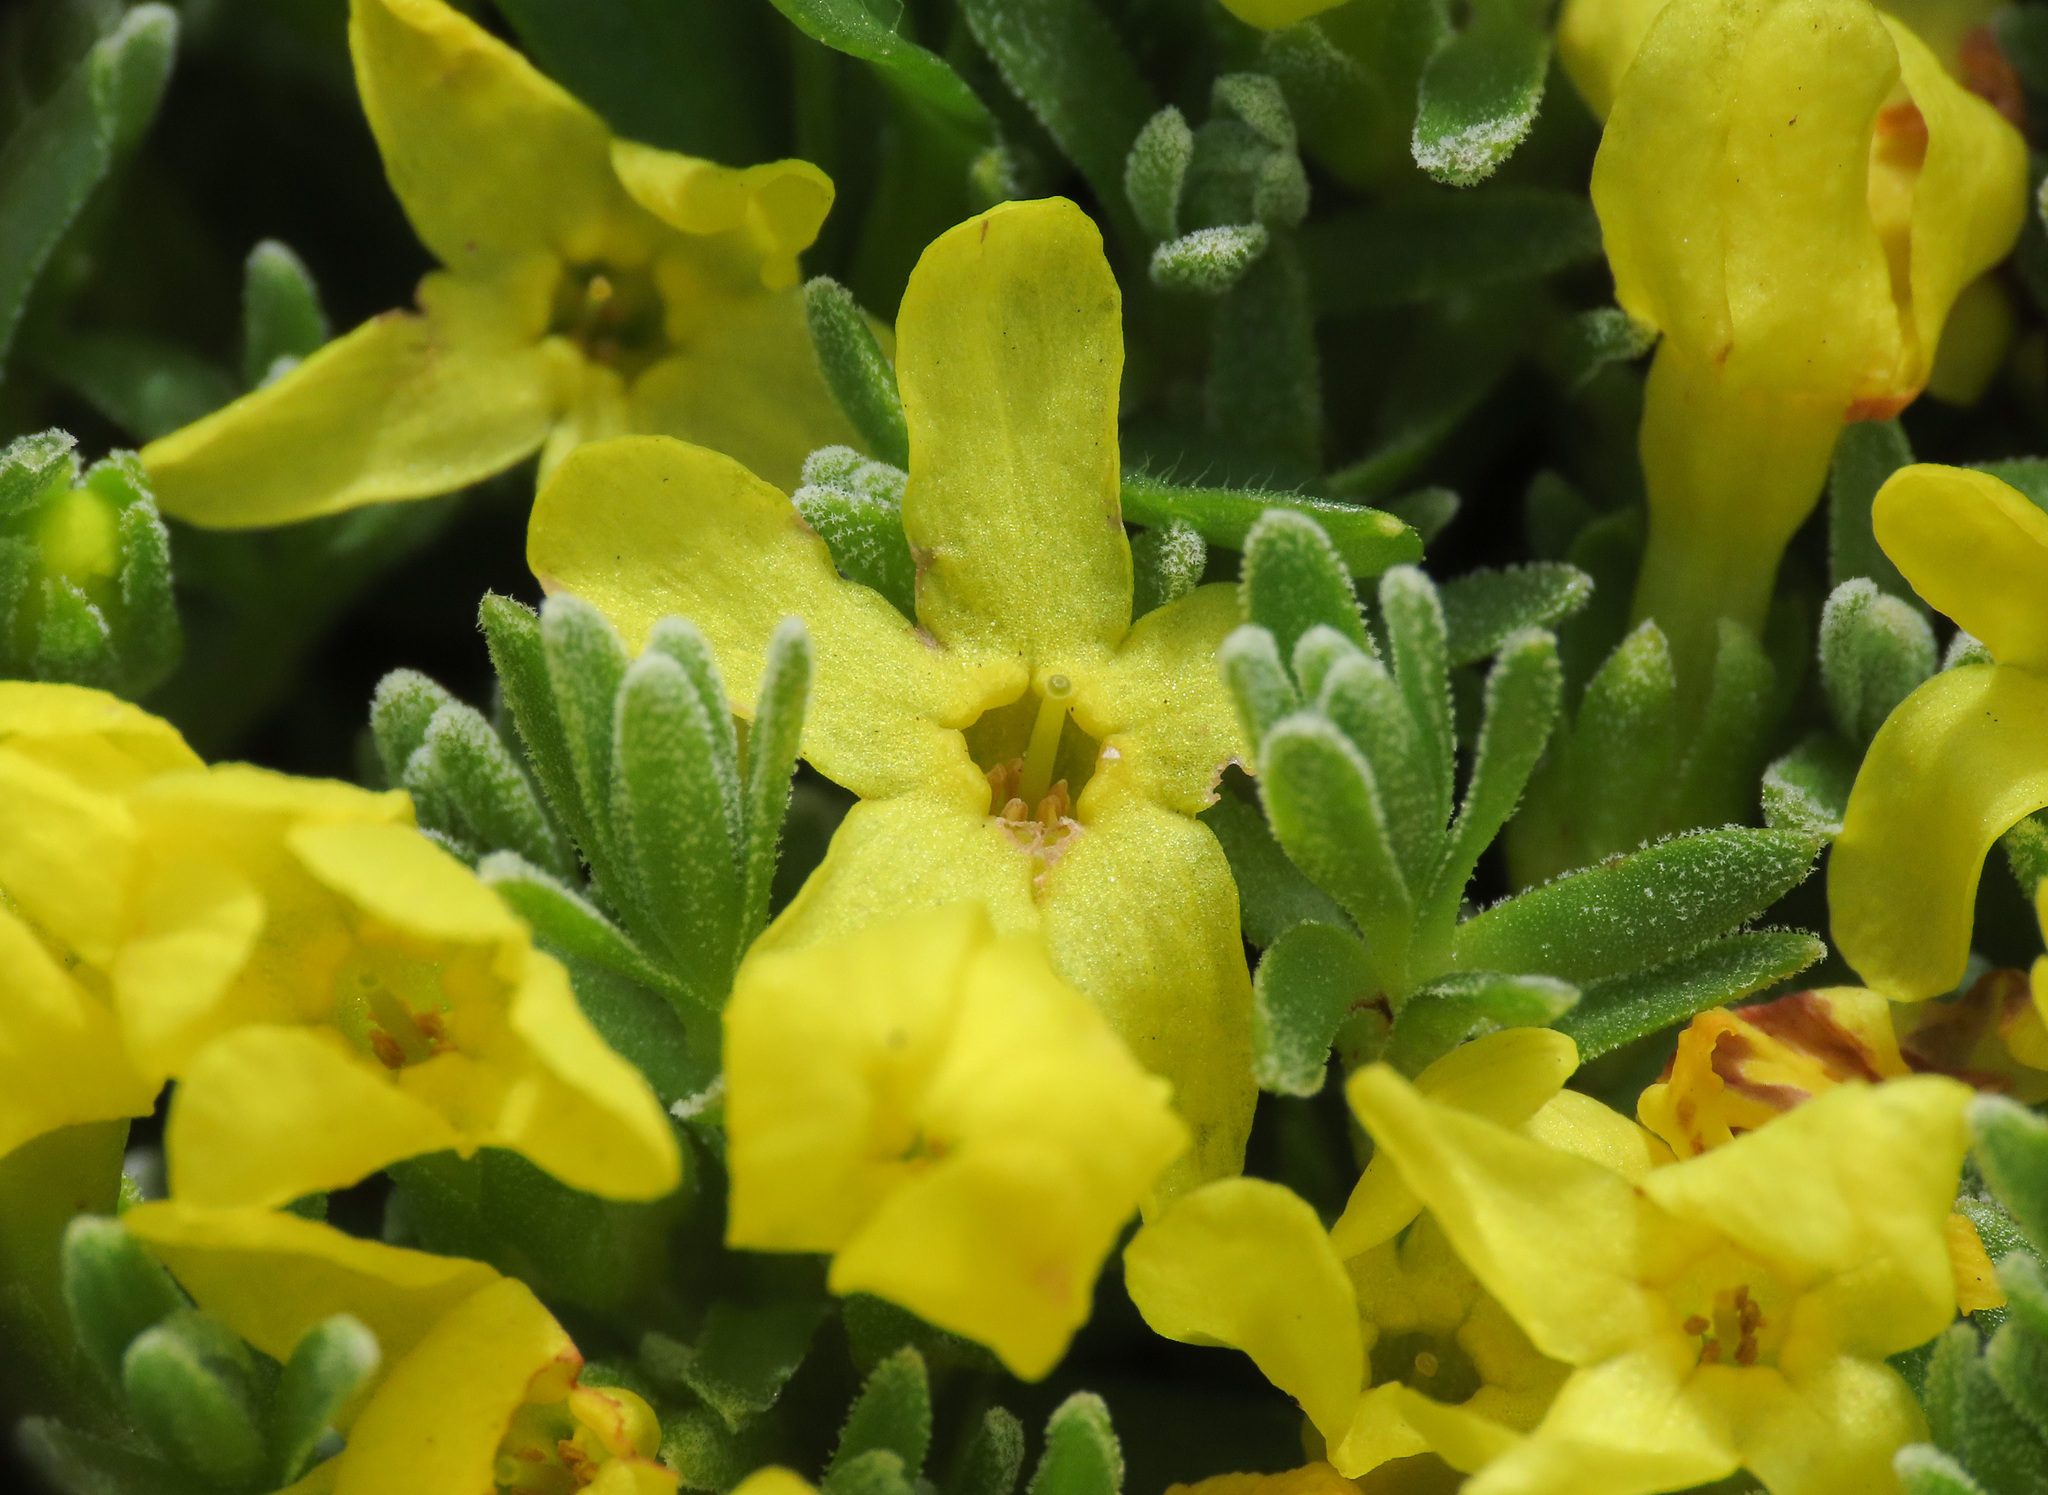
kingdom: Plantae
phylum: Tracheophyta
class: Magnoliopsida
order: Ericales
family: Primulaceae
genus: Androsace
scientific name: Androsace vitaliana
